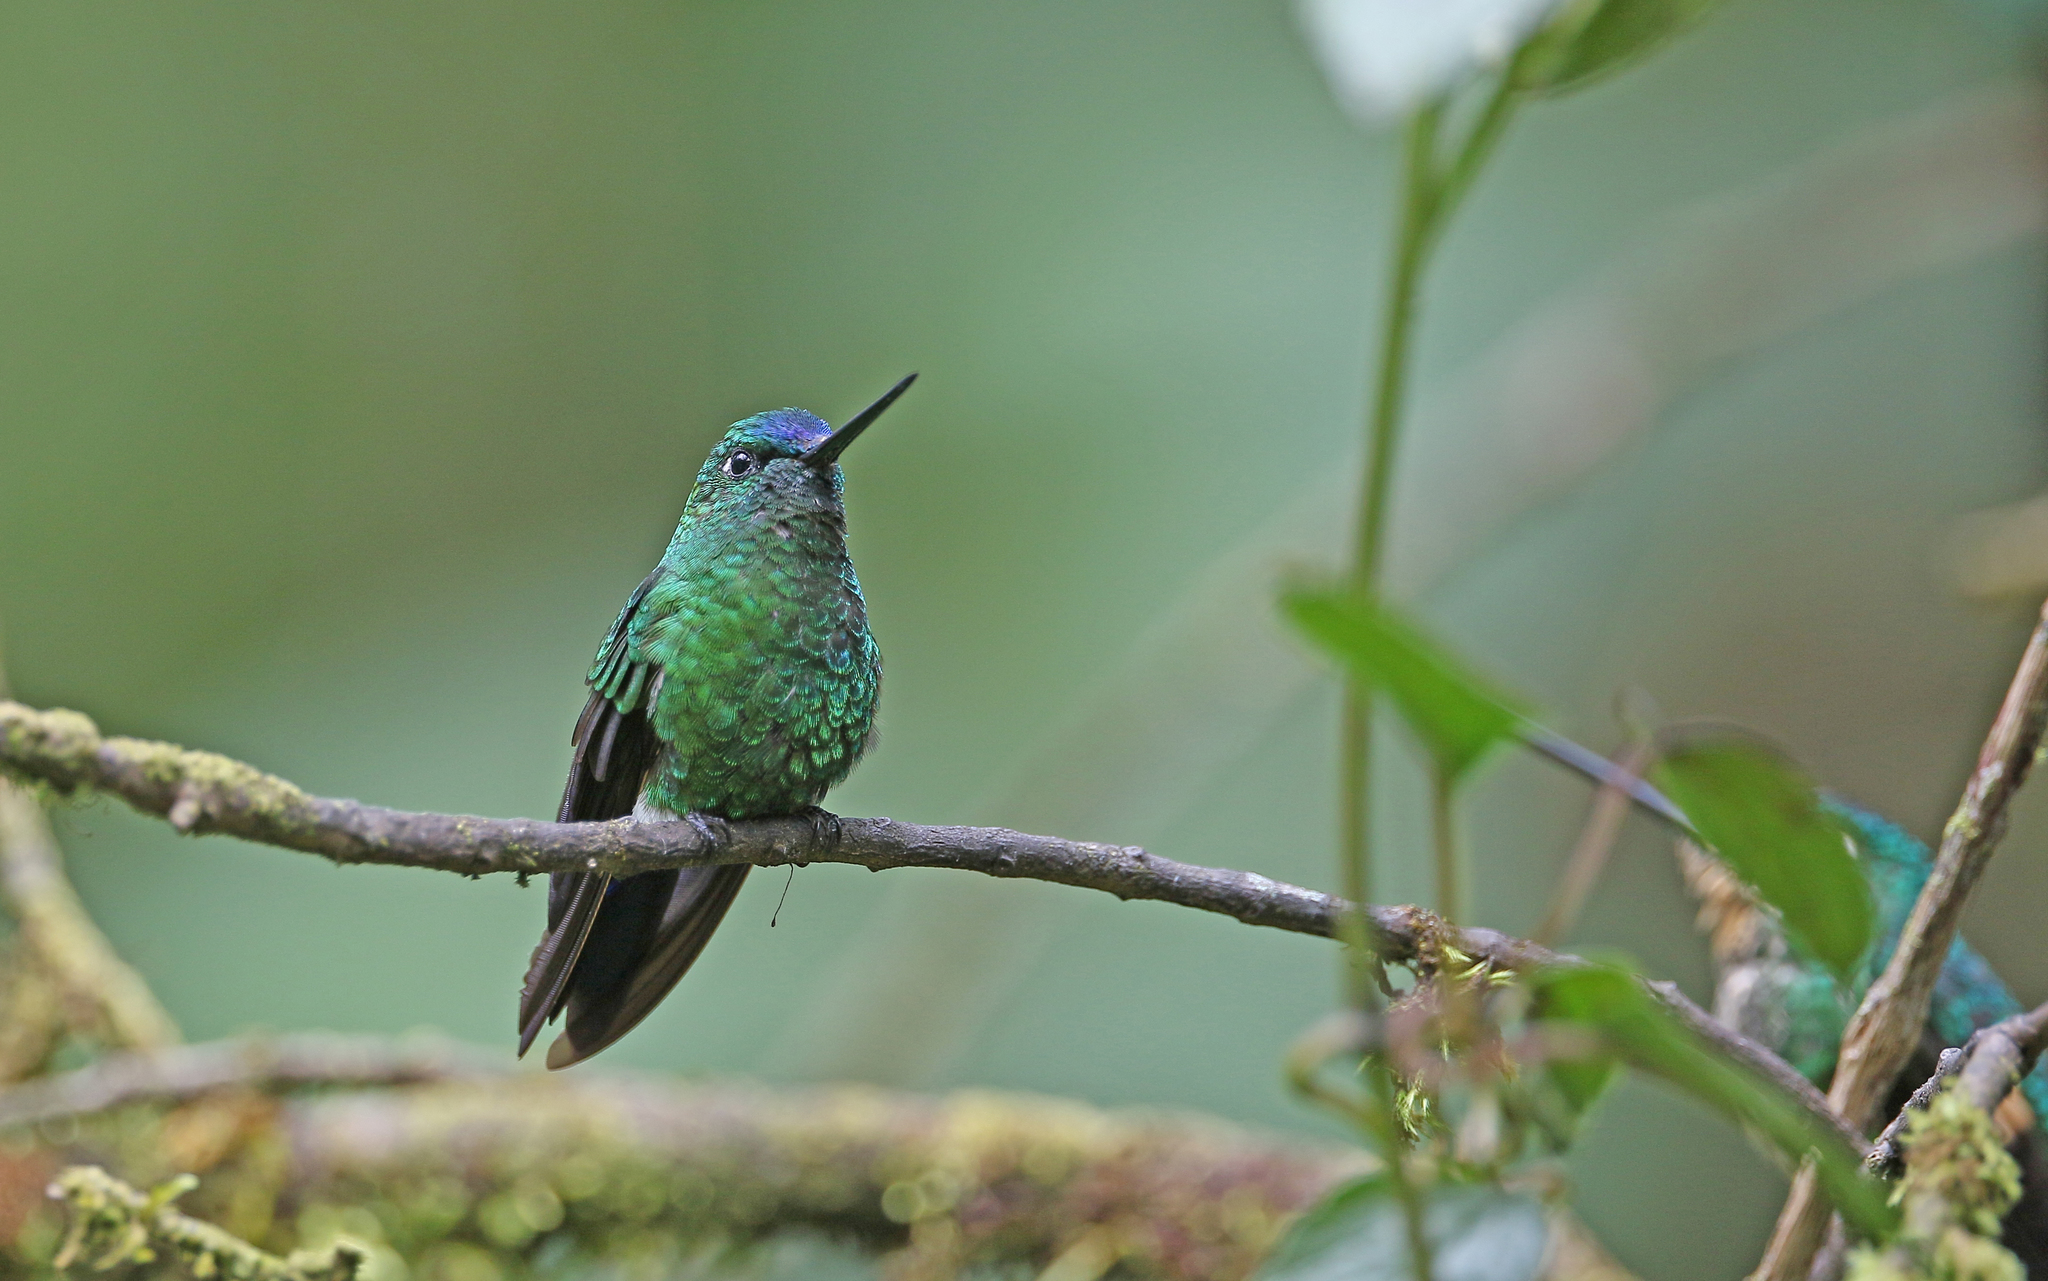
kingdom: Animalia
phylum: Chordata
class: Aves
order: Apodiformes
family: Trochilidae
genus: Eriocnemis
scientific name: Eriocnemis luciani
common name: Sapphire-vented puffleg
